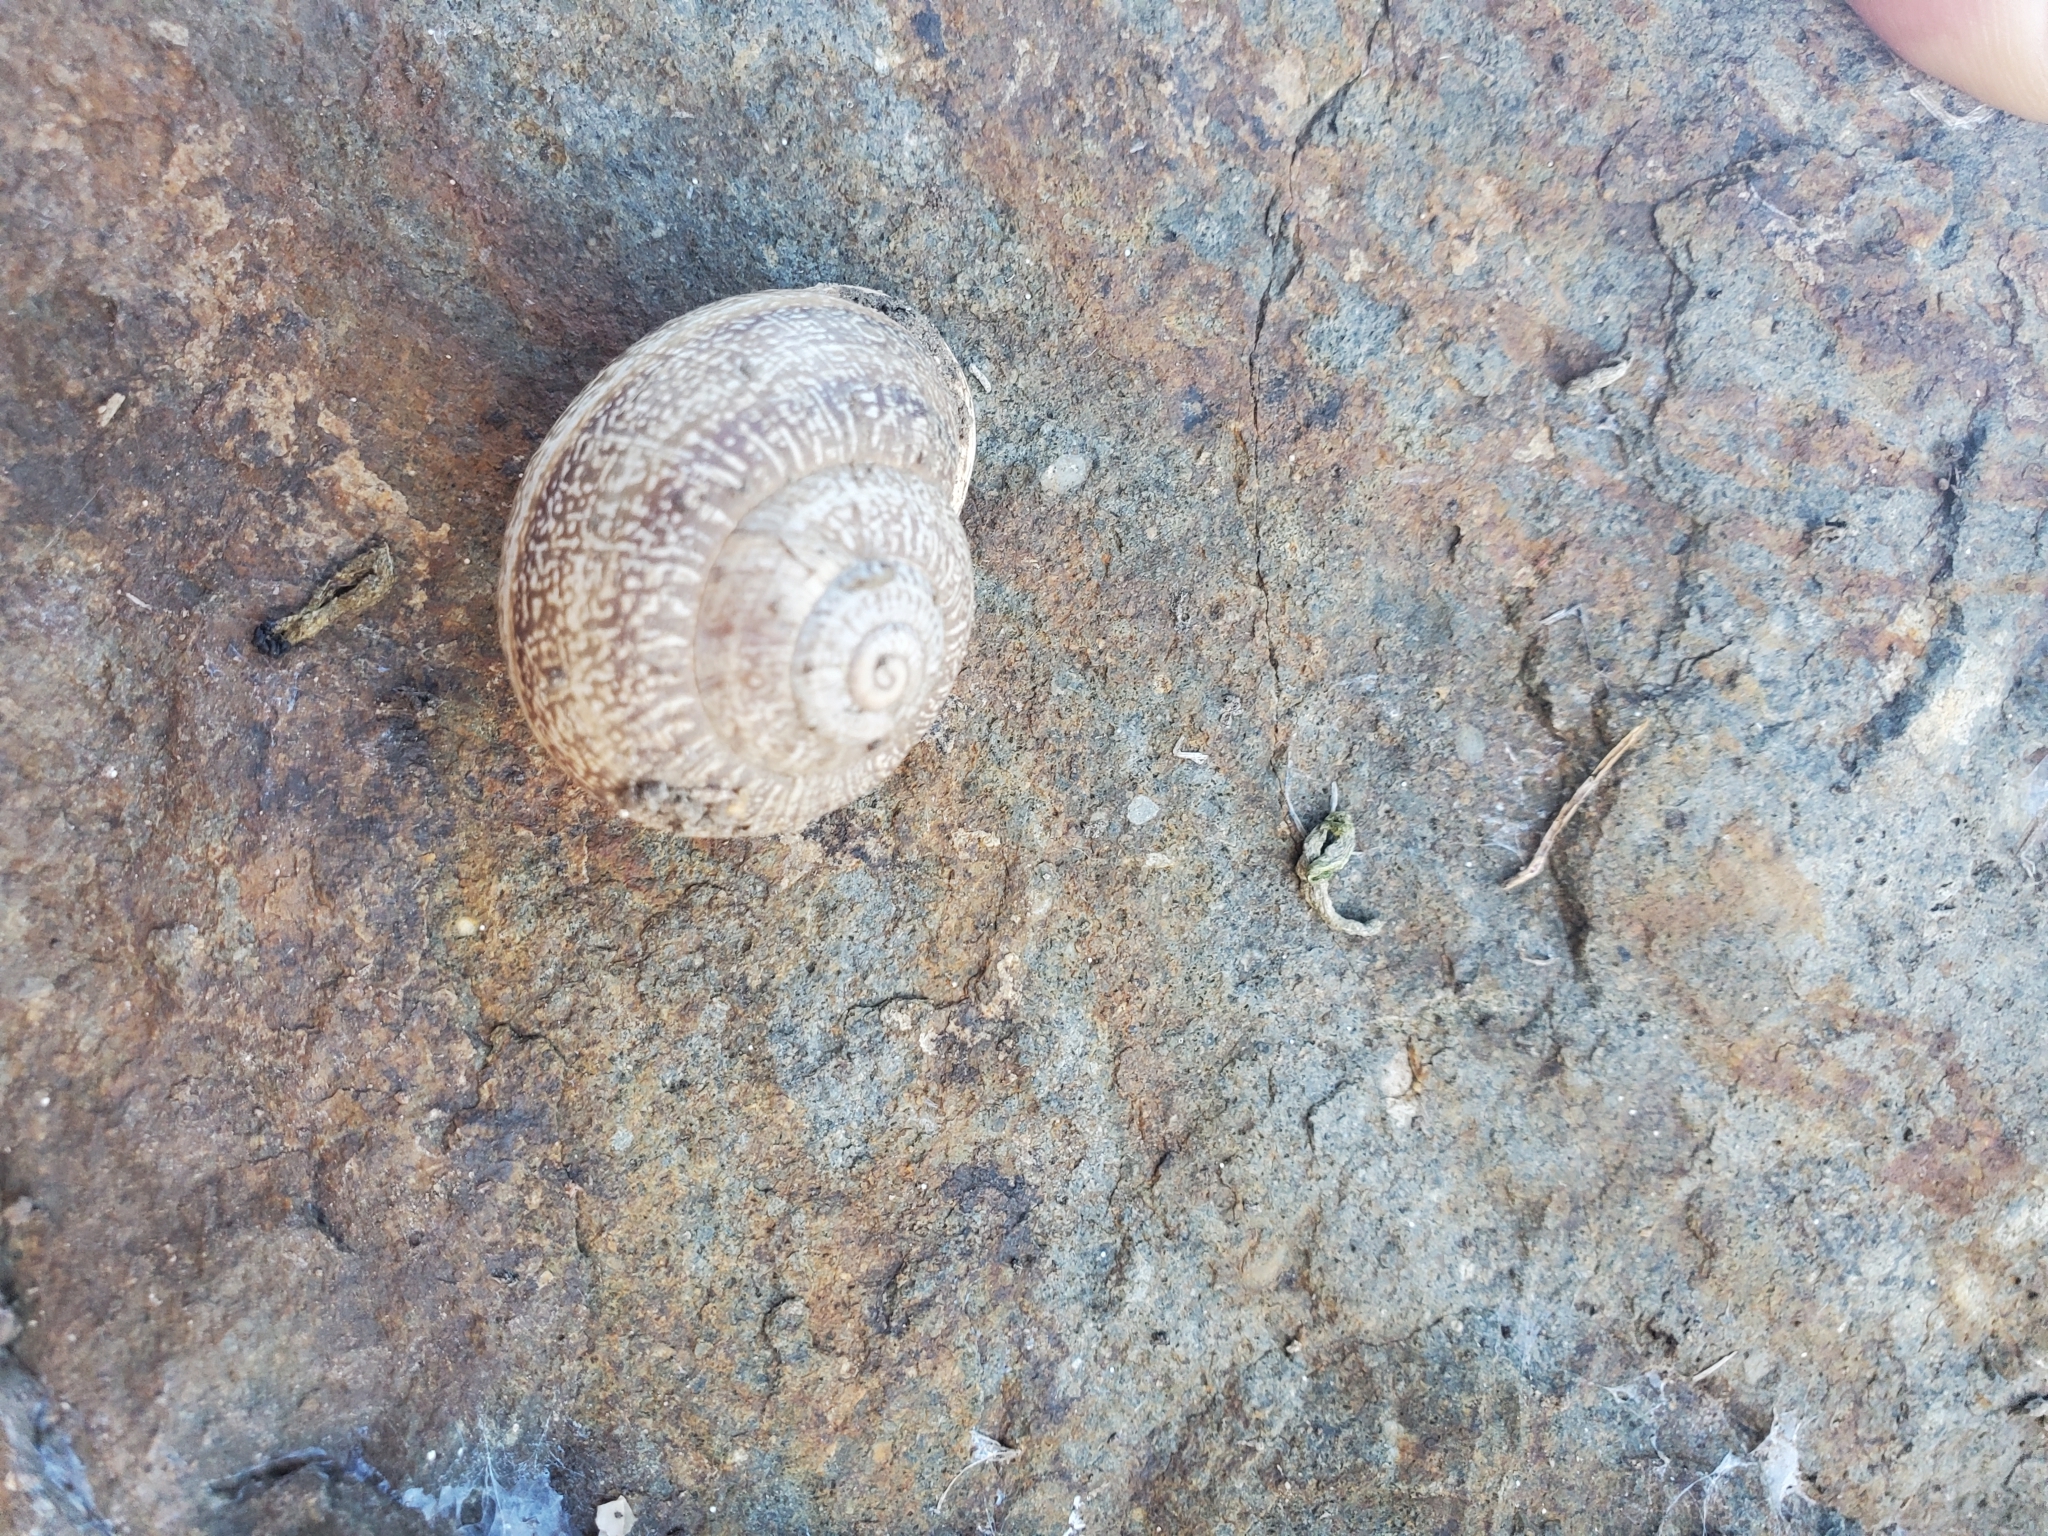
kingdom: Animalia
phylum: Mollusca
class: Gastropoda
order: Stylommatophora
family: Helicidae
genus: Otala
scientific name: Otala lactea
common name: Milk snail
